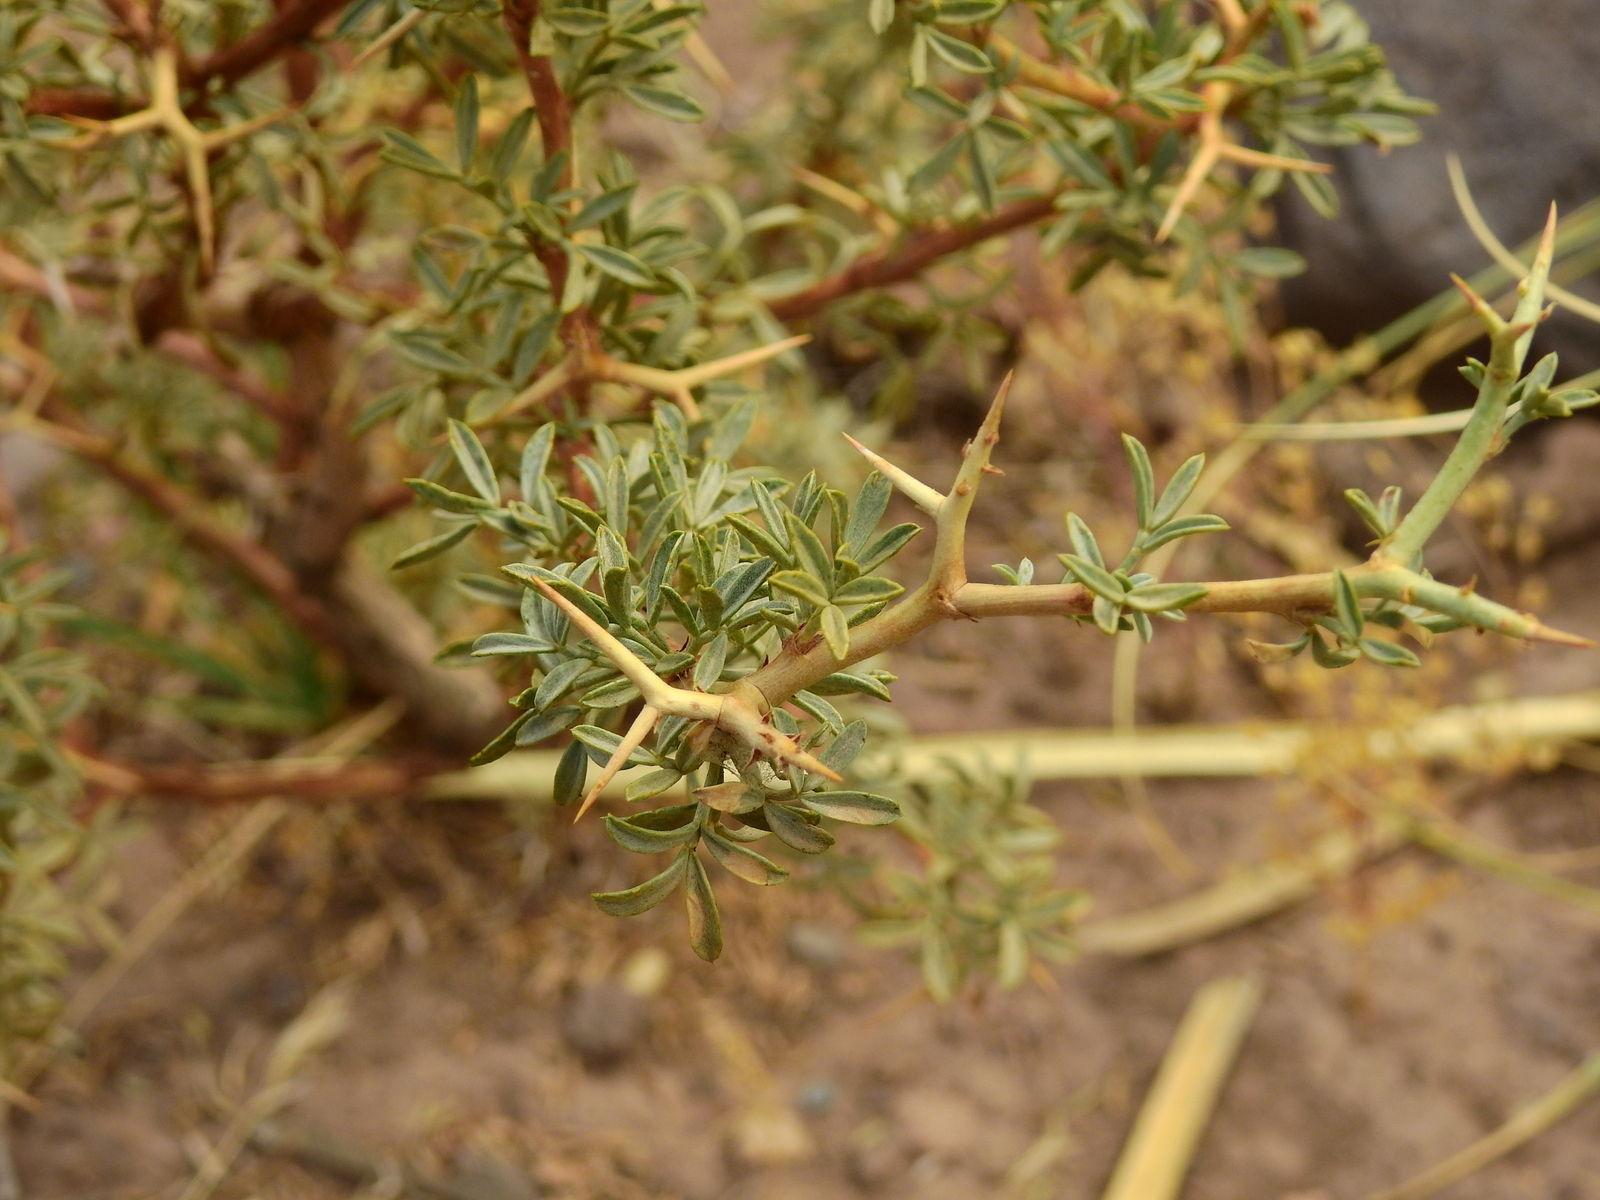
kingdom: Plantae
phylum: Tracheophyta
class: Magnoliopsida
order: Fabales
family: Fabaceae
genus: Adesmia
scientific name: Adesmia volckmannii
